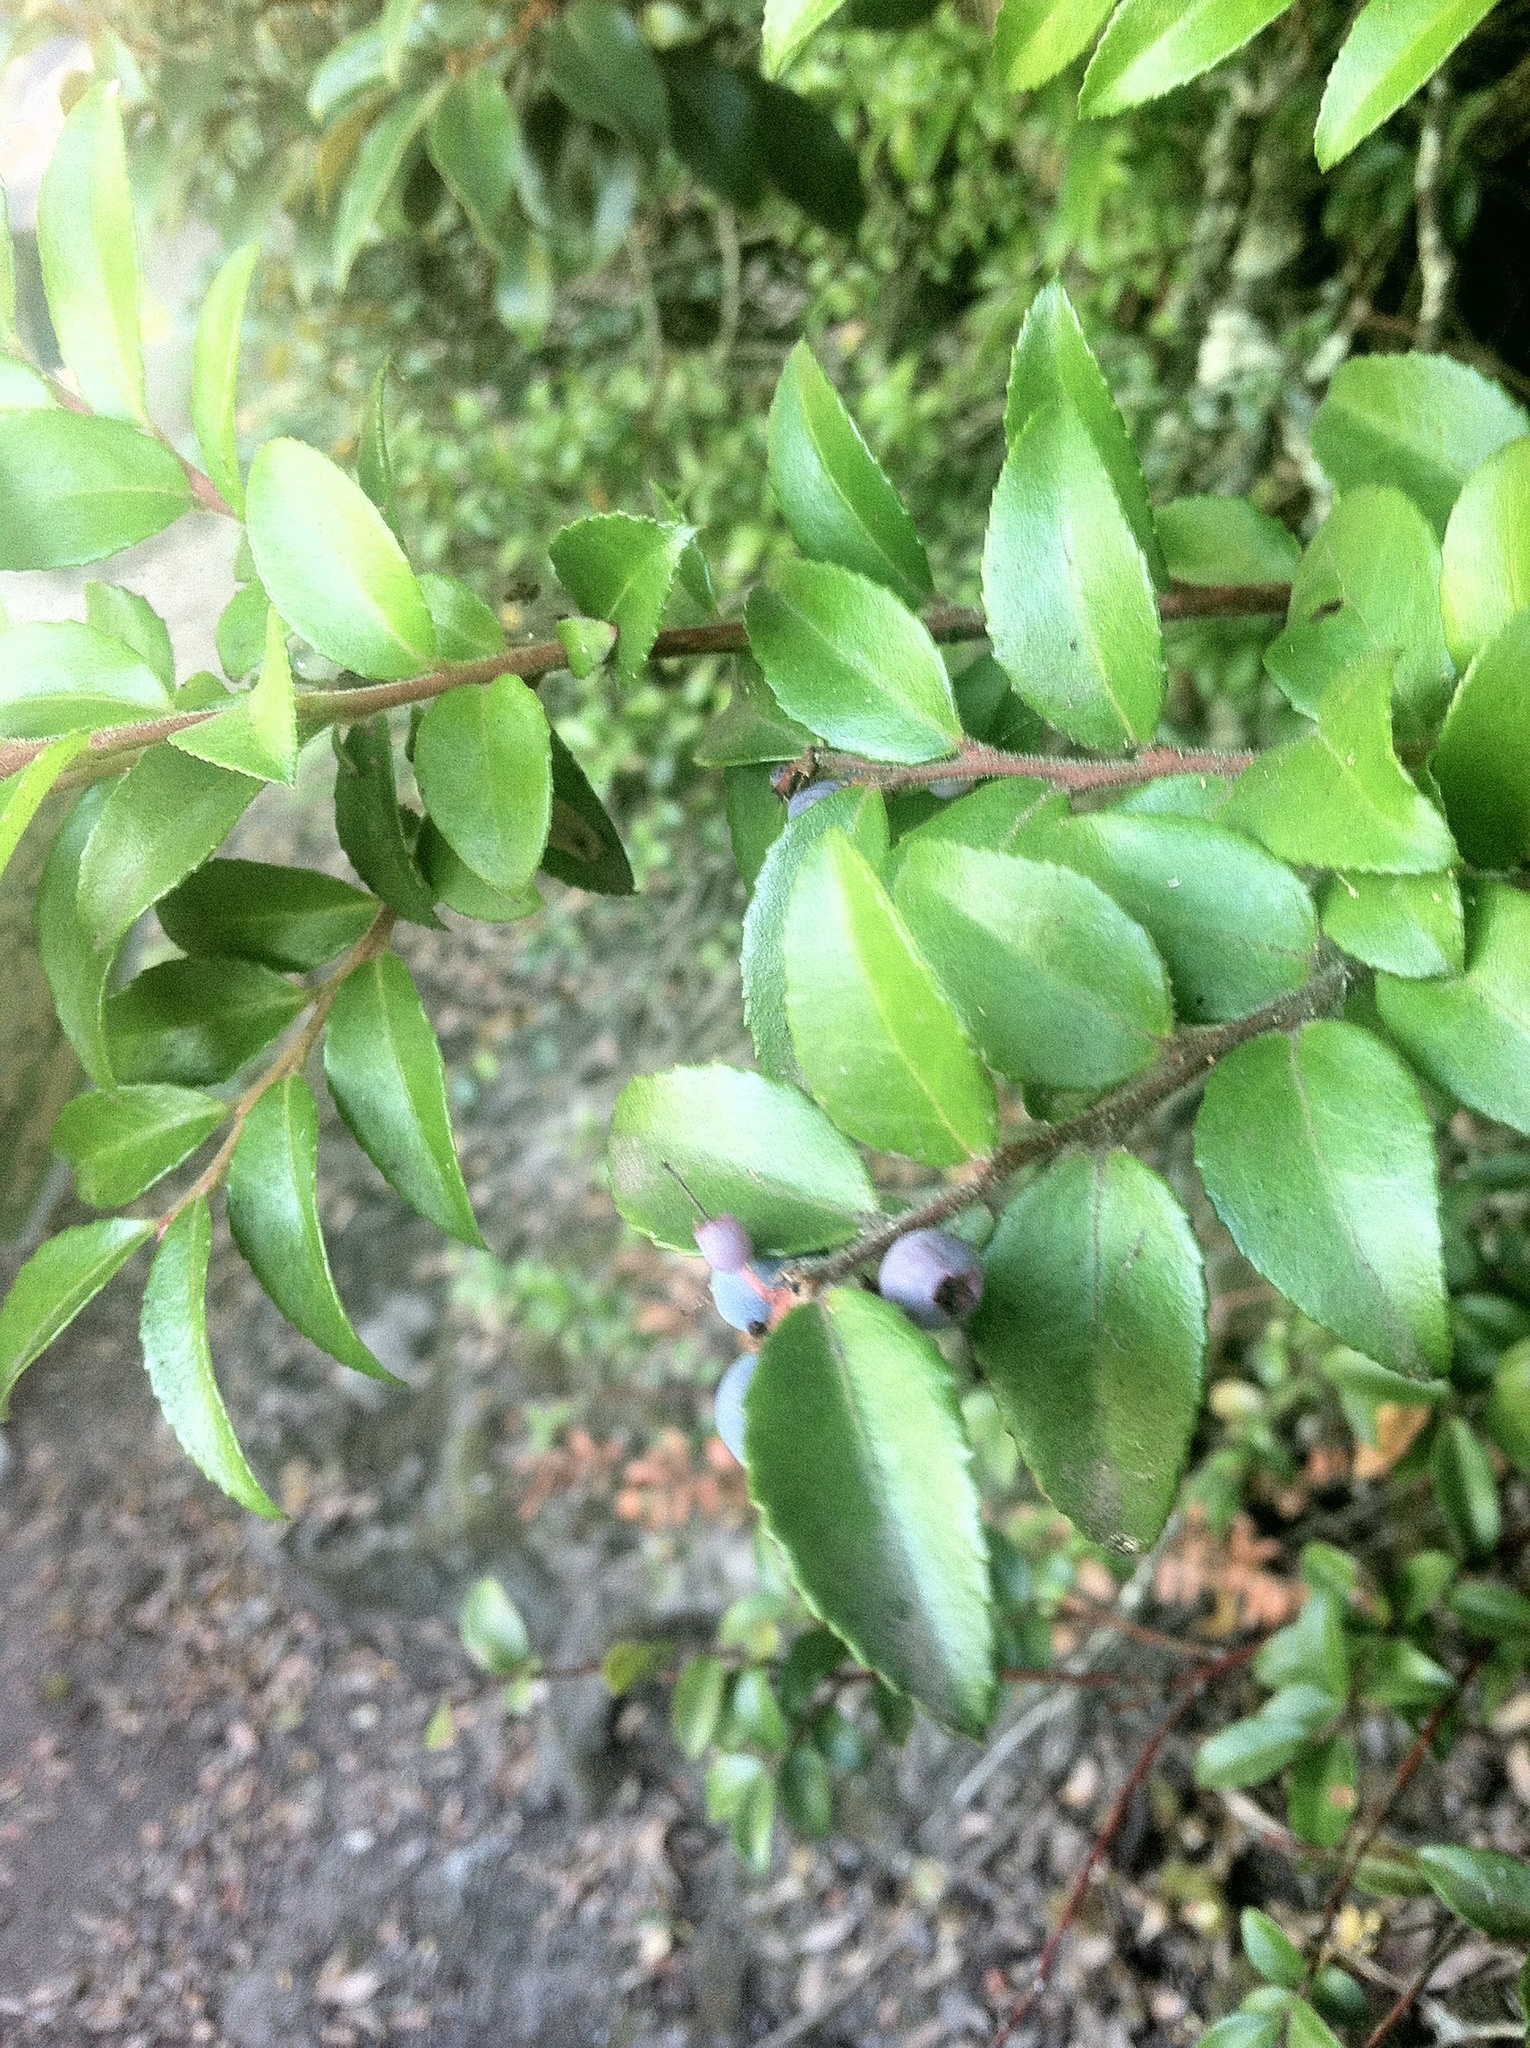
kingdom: Plantae
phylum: Tracheophyta
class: Magnoliopsida
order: Ericales
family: Ericaceae
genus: Vaccinium
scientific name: Vaccinium ovatum
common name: California-huckleberry
